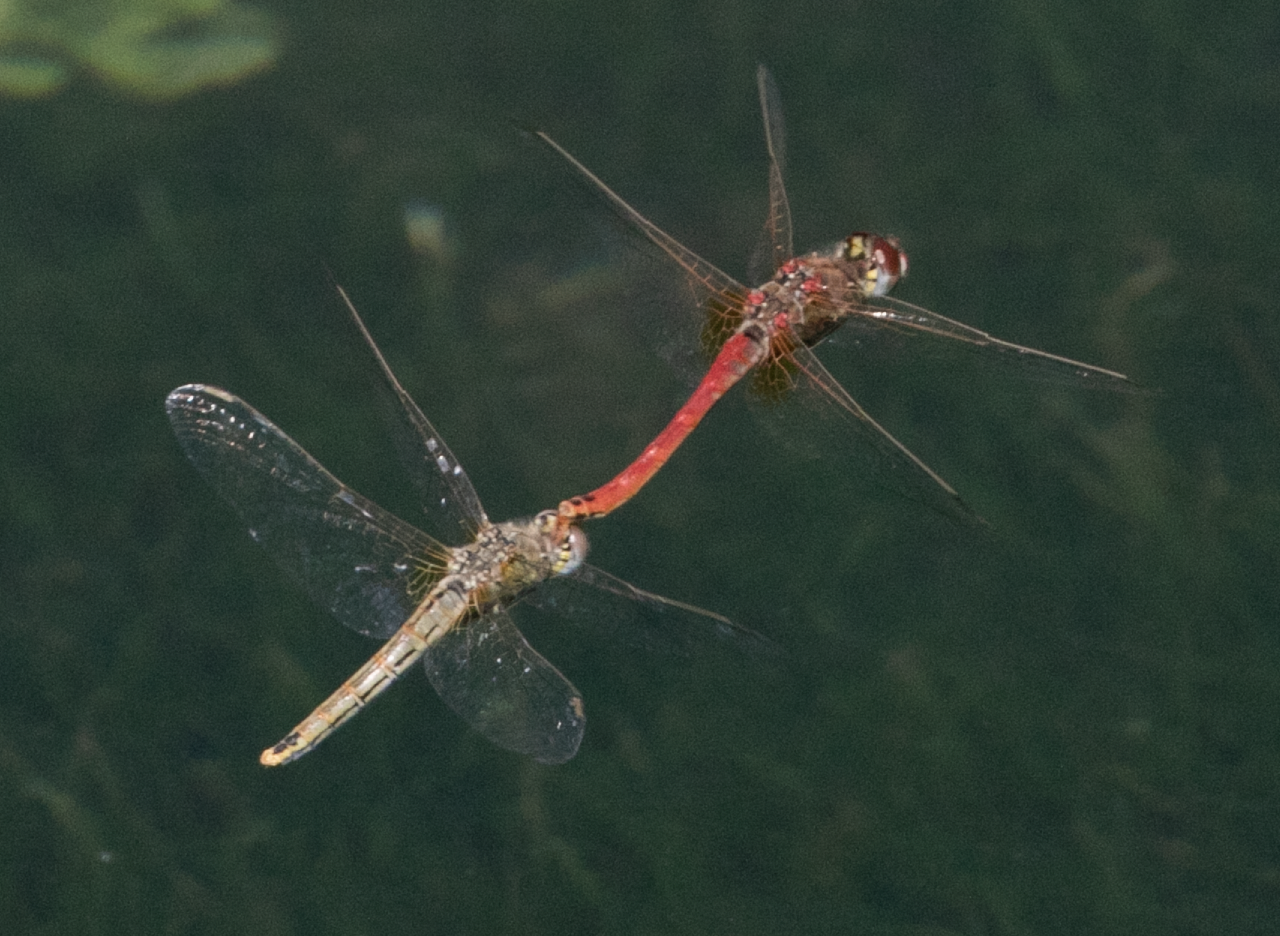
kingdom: Animalia
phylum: Arthropoda
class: Insecta
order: Odonata
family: Libellulidae
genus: Sympetrum
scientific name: Sympetrum fonscolombii
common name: Red-veined darter
